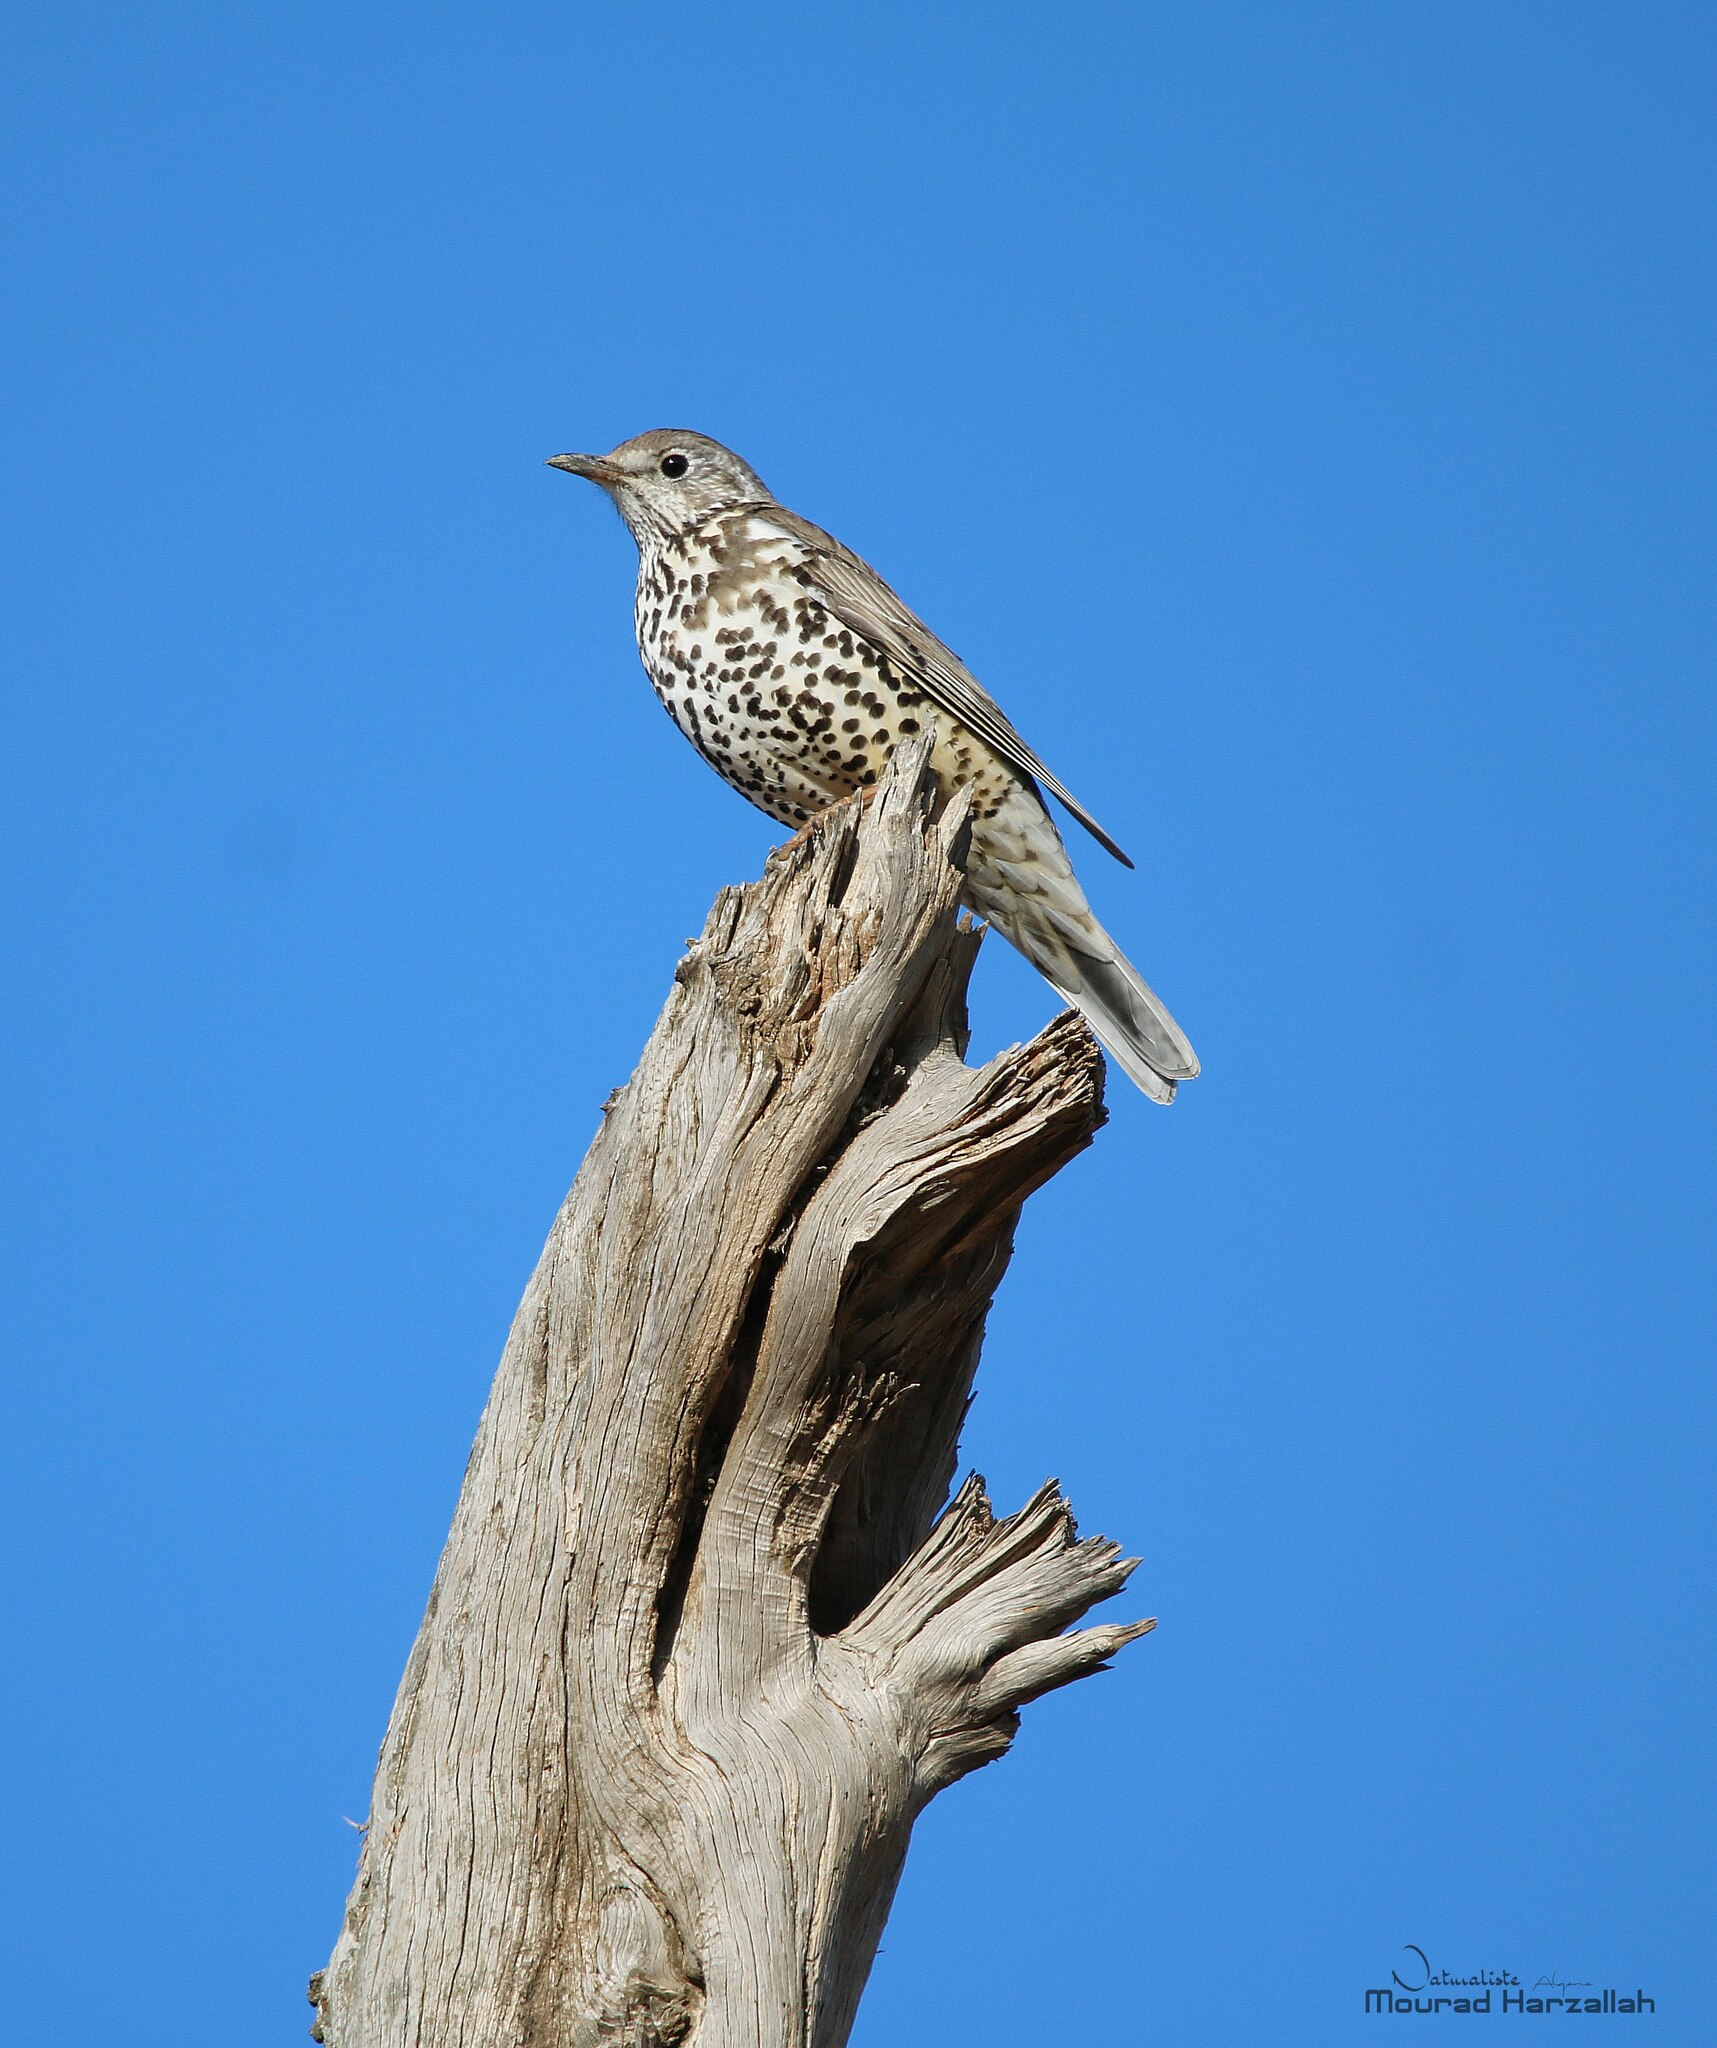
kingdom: Animalia
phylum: Chordata
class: Aves
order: Passeriformes
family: Turdidae
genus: Turdus
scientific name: Turdus viscivorus
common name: Mistle thrush
